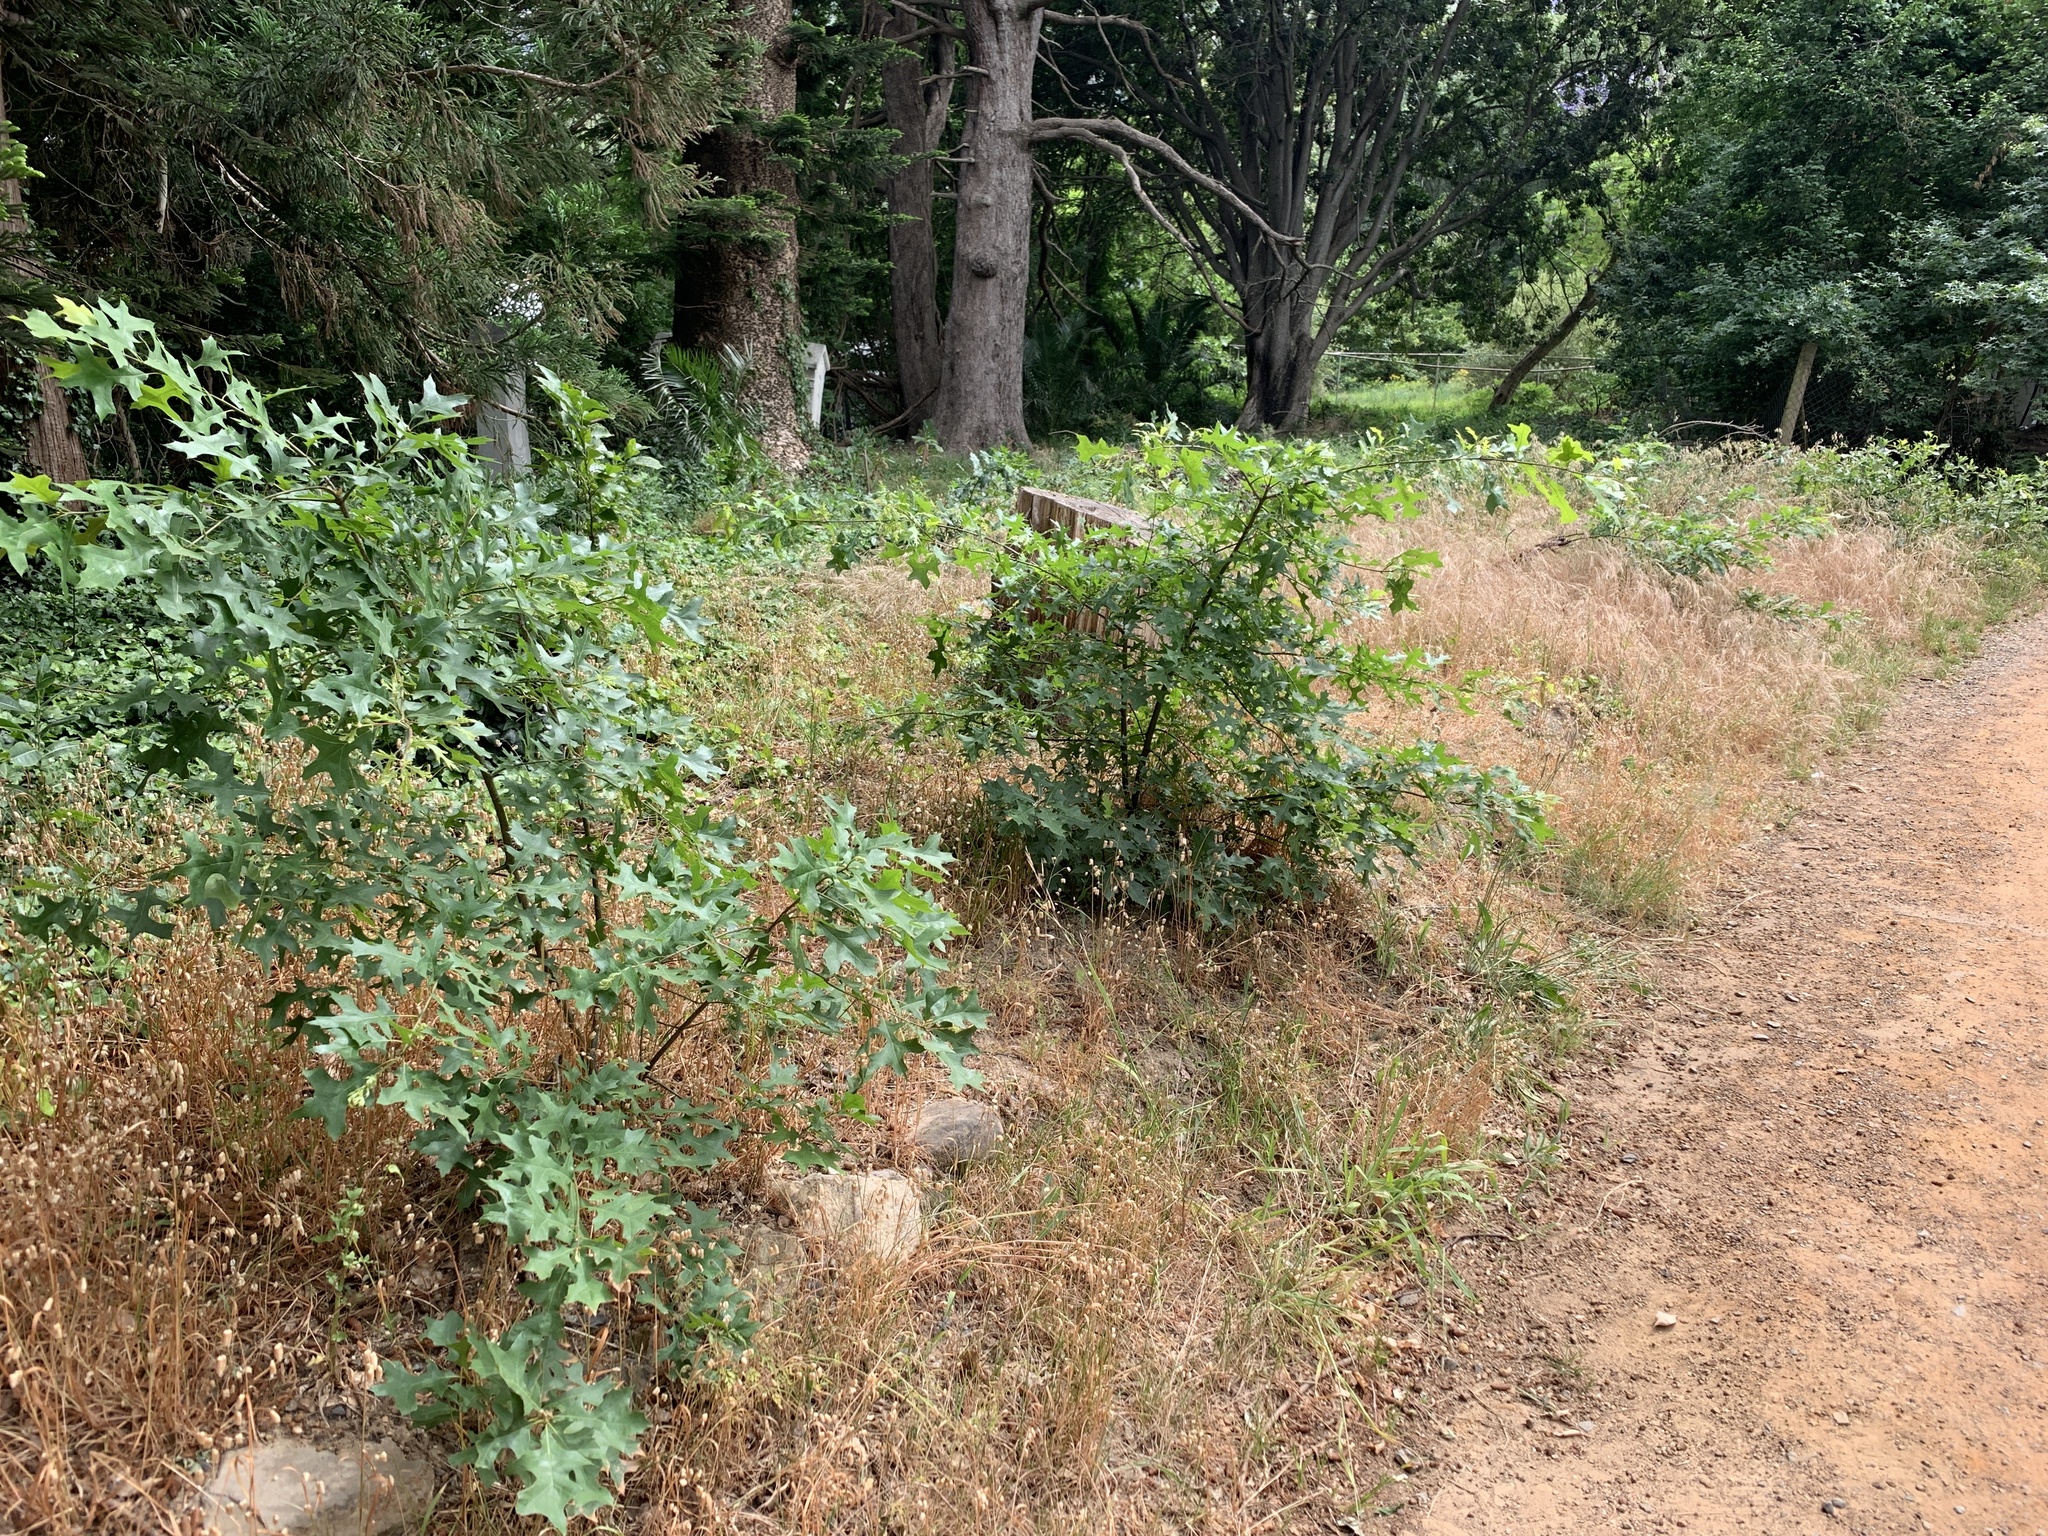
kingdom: Plantae
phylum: Tracheophyta
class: Magnoliopsida
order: Fagales
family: Fagaceae
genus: Quercus
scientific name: Quercus palustris
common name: Pin oak
